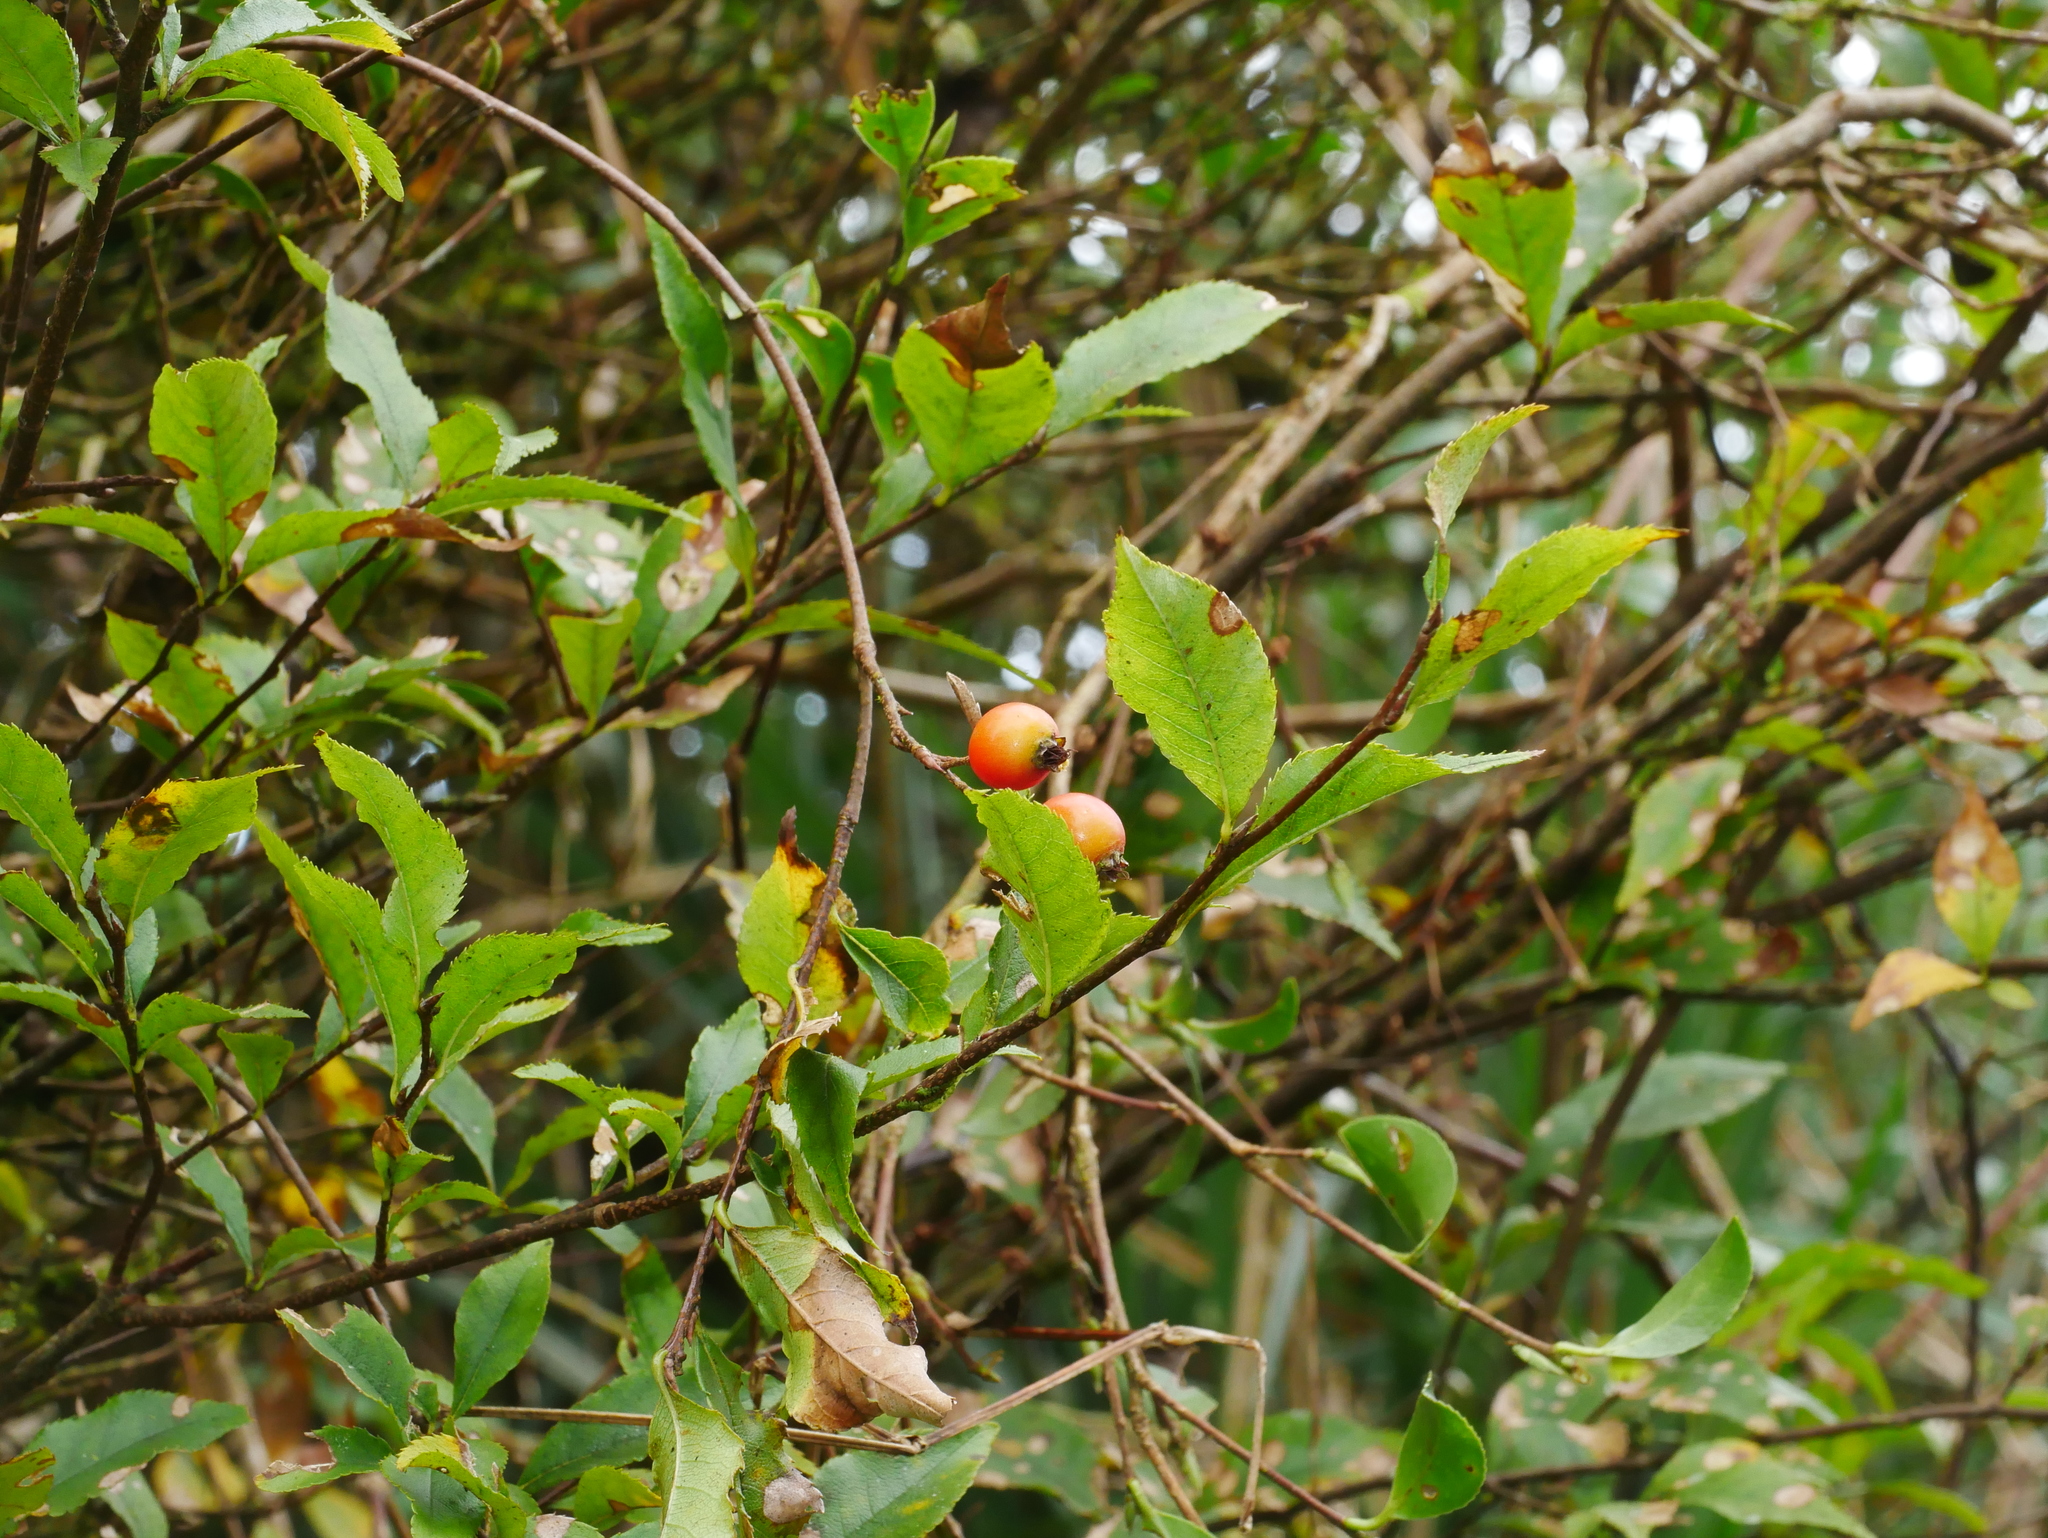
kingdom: Plantae
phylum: Tracheophyta
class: Magnoliopsida
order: Rosales
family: Rosaceae
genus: Pourthiaea
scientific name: Pourthiaea villosa
